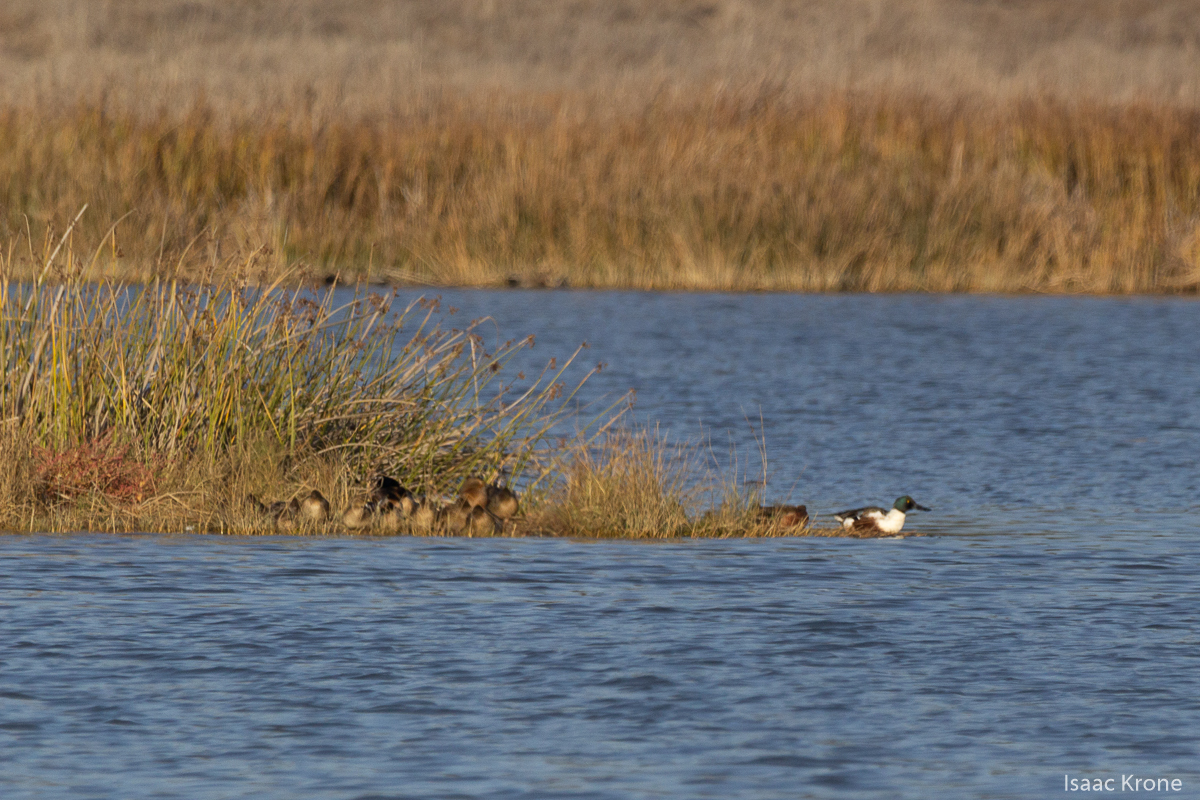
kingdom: Animalia
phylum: Chordata
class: Aves
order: Anseriformes
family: Anatidae
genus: Spatula
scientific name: Spatula clypeata
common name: Northern shoveler
